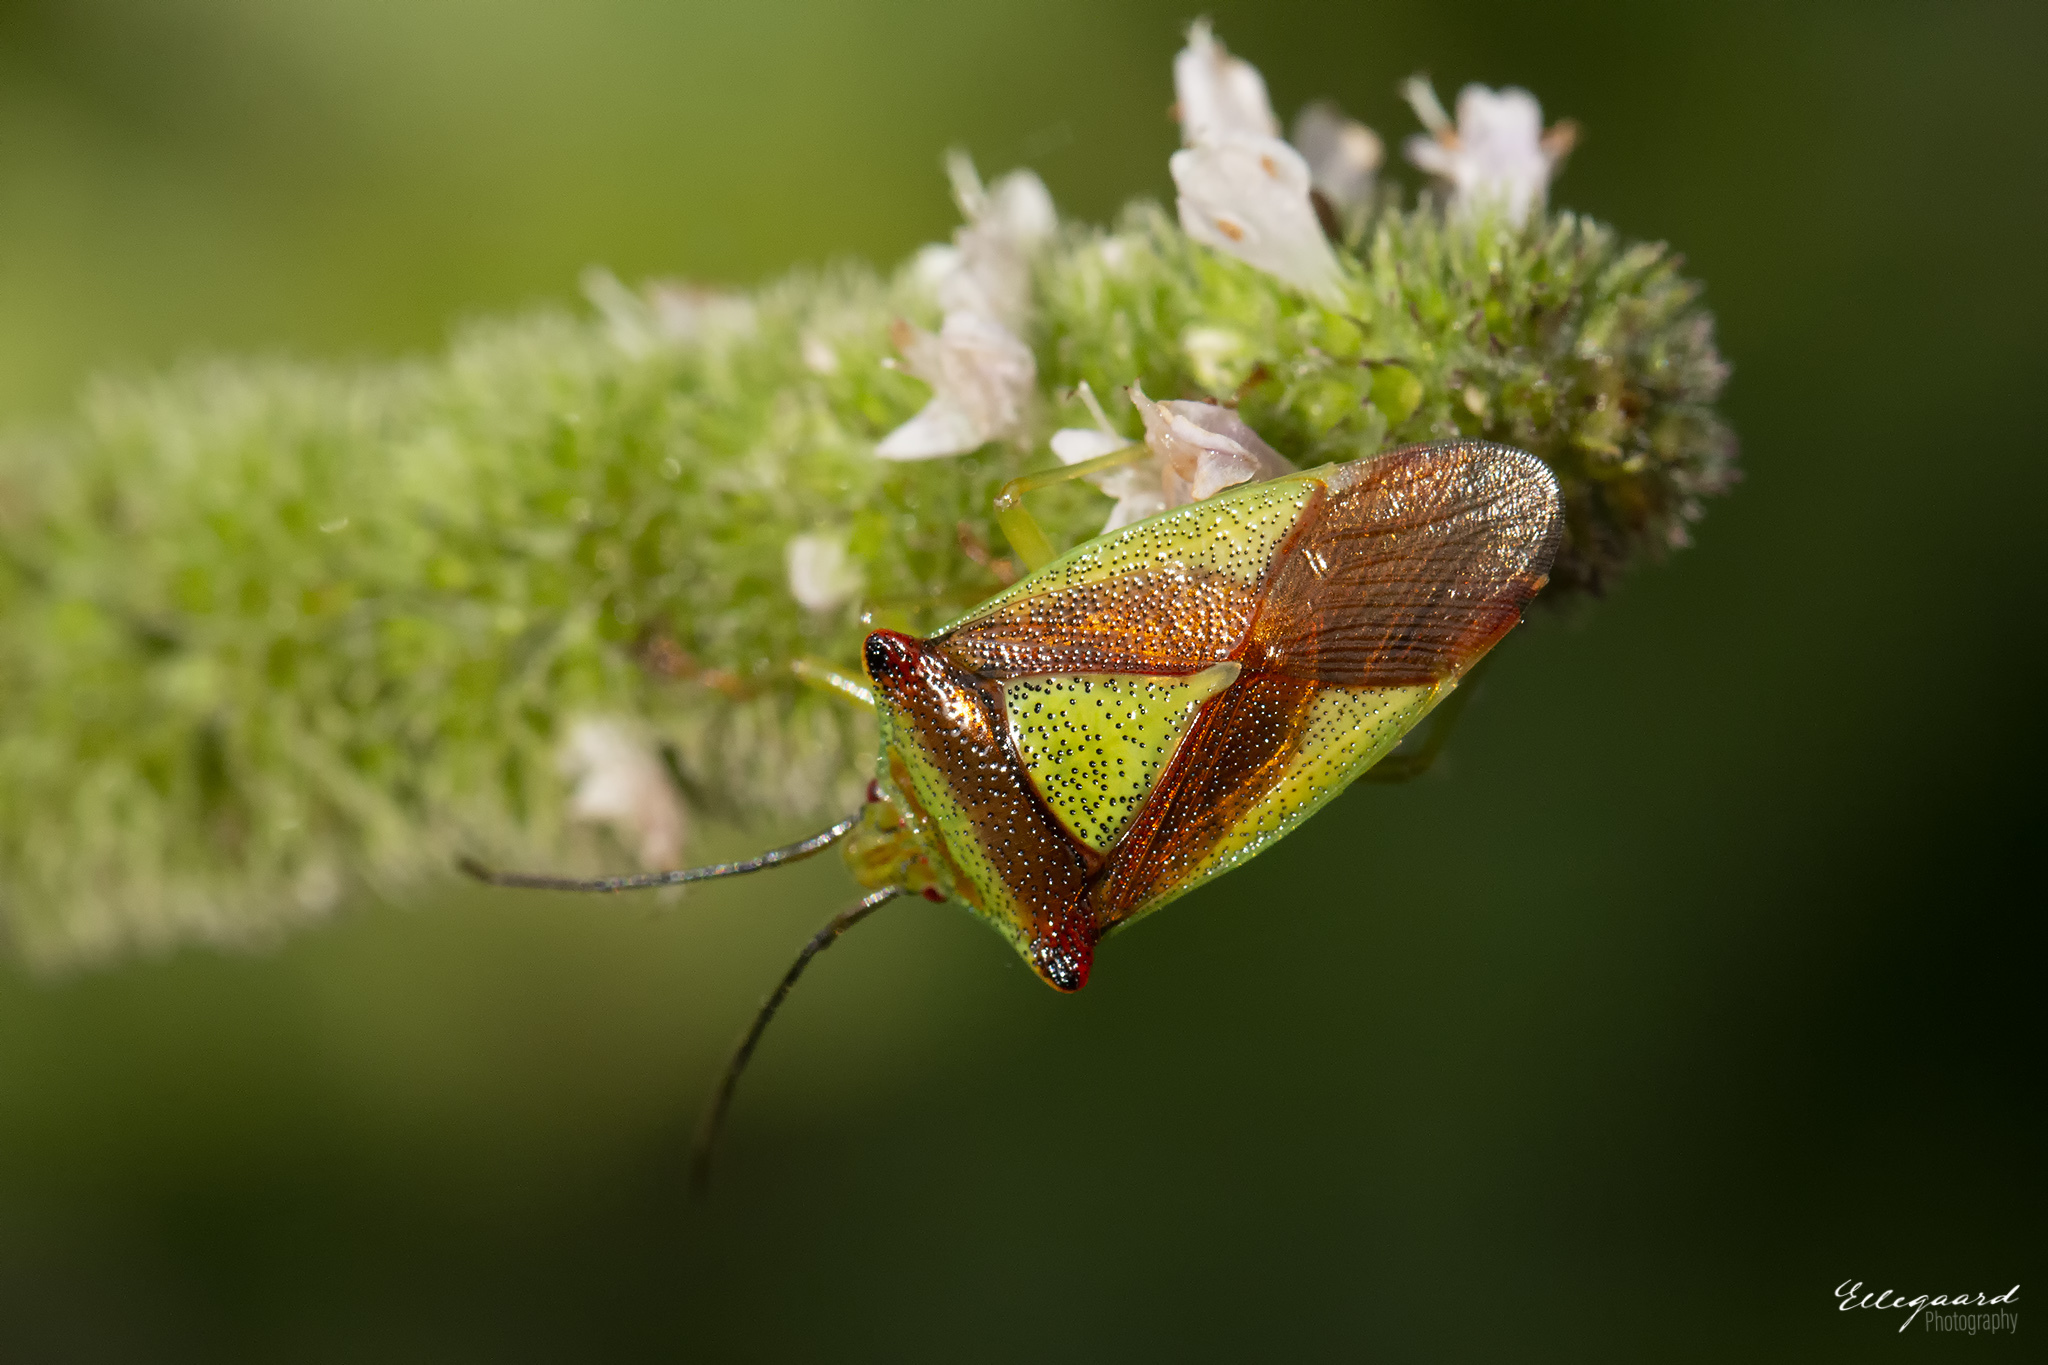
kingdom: Animalia
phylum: Arthropoda
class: Insecta
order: Hemiptera
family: Acanthosomatidae
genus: Acanthosoma
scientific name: Acanthosoma haemorrhoidale
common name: Hawthorn shieldbug
